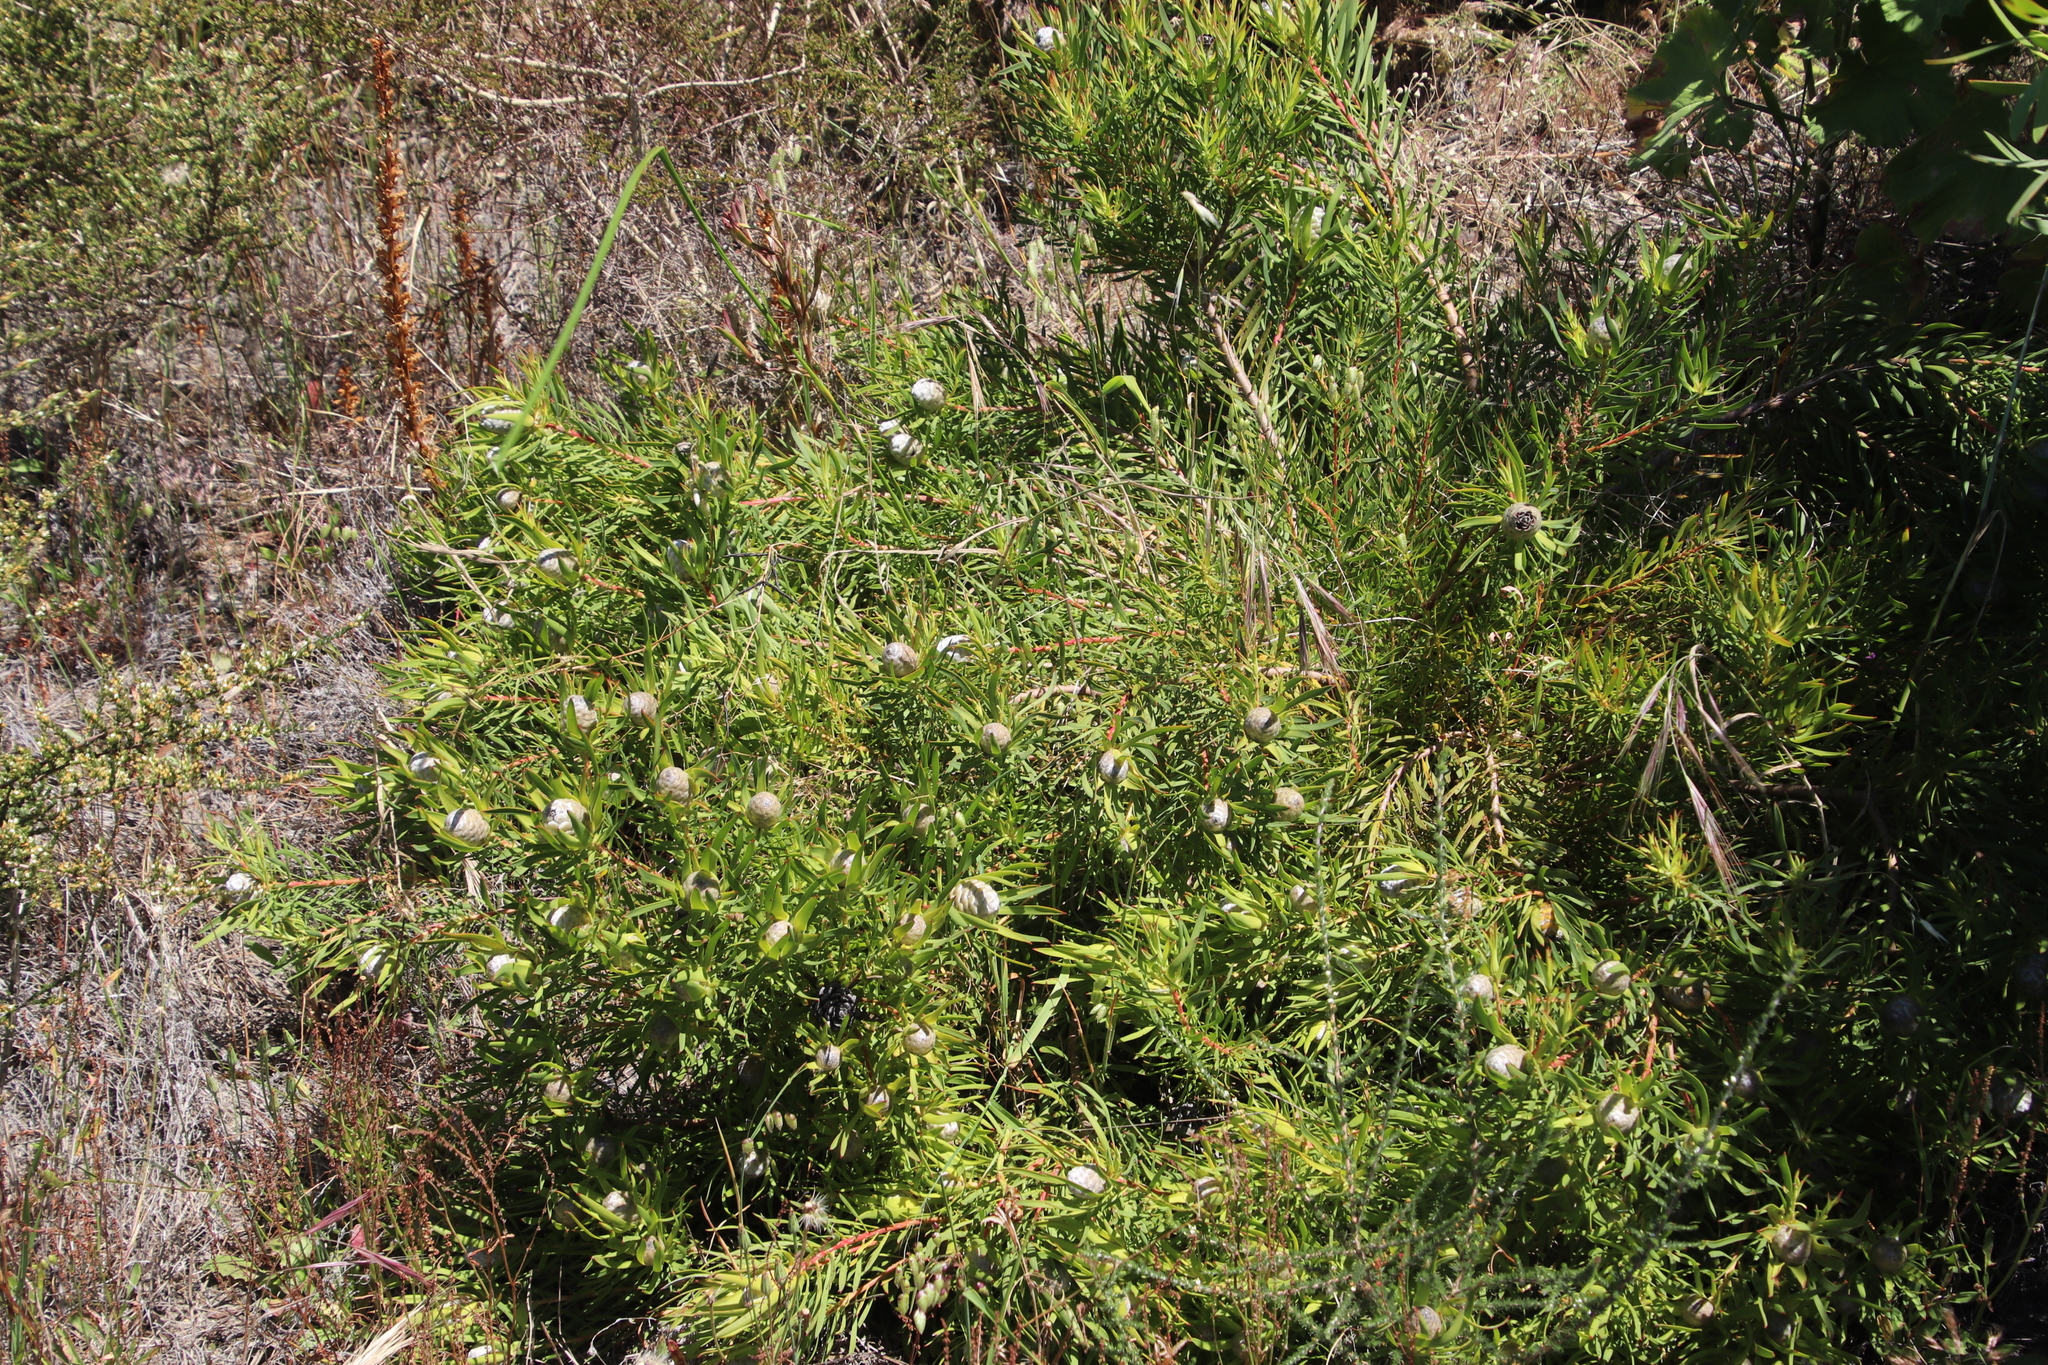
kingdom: Plantae
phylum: Tracheophyta
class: Magnoliopsida
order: Proteales
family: Proteaceae
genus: Leucadendron
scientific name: Leucadendron salignum
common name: Common sunshine conebush
